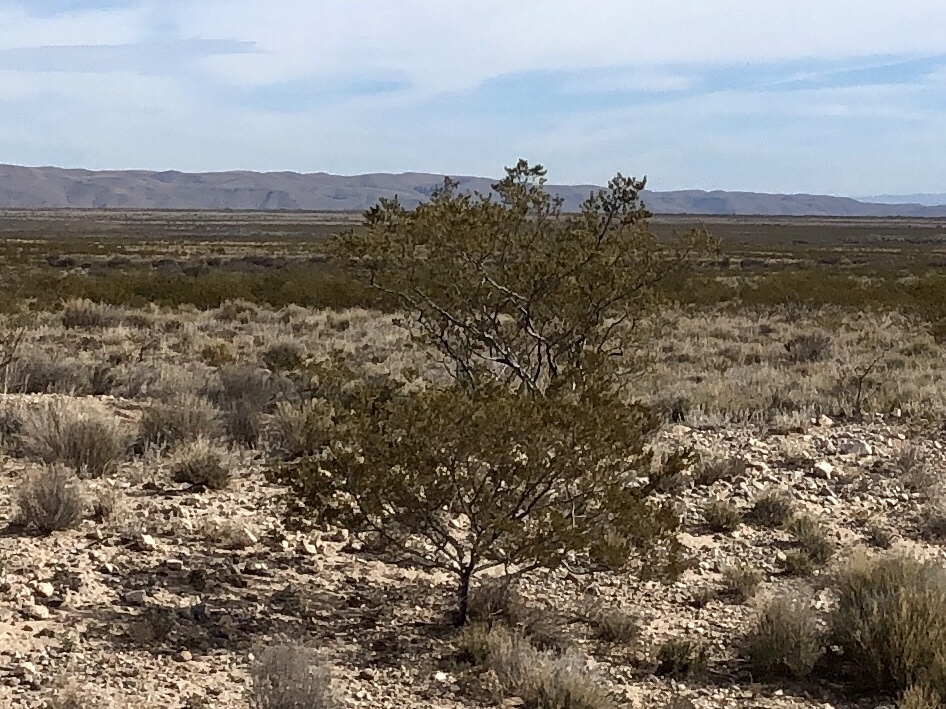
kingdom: Plantae
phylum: Tracheophyta
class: Magnoliopsida
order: Zygophyllales
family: Zygophyllaceae
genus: Larrea
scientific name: Larrea tridentata
